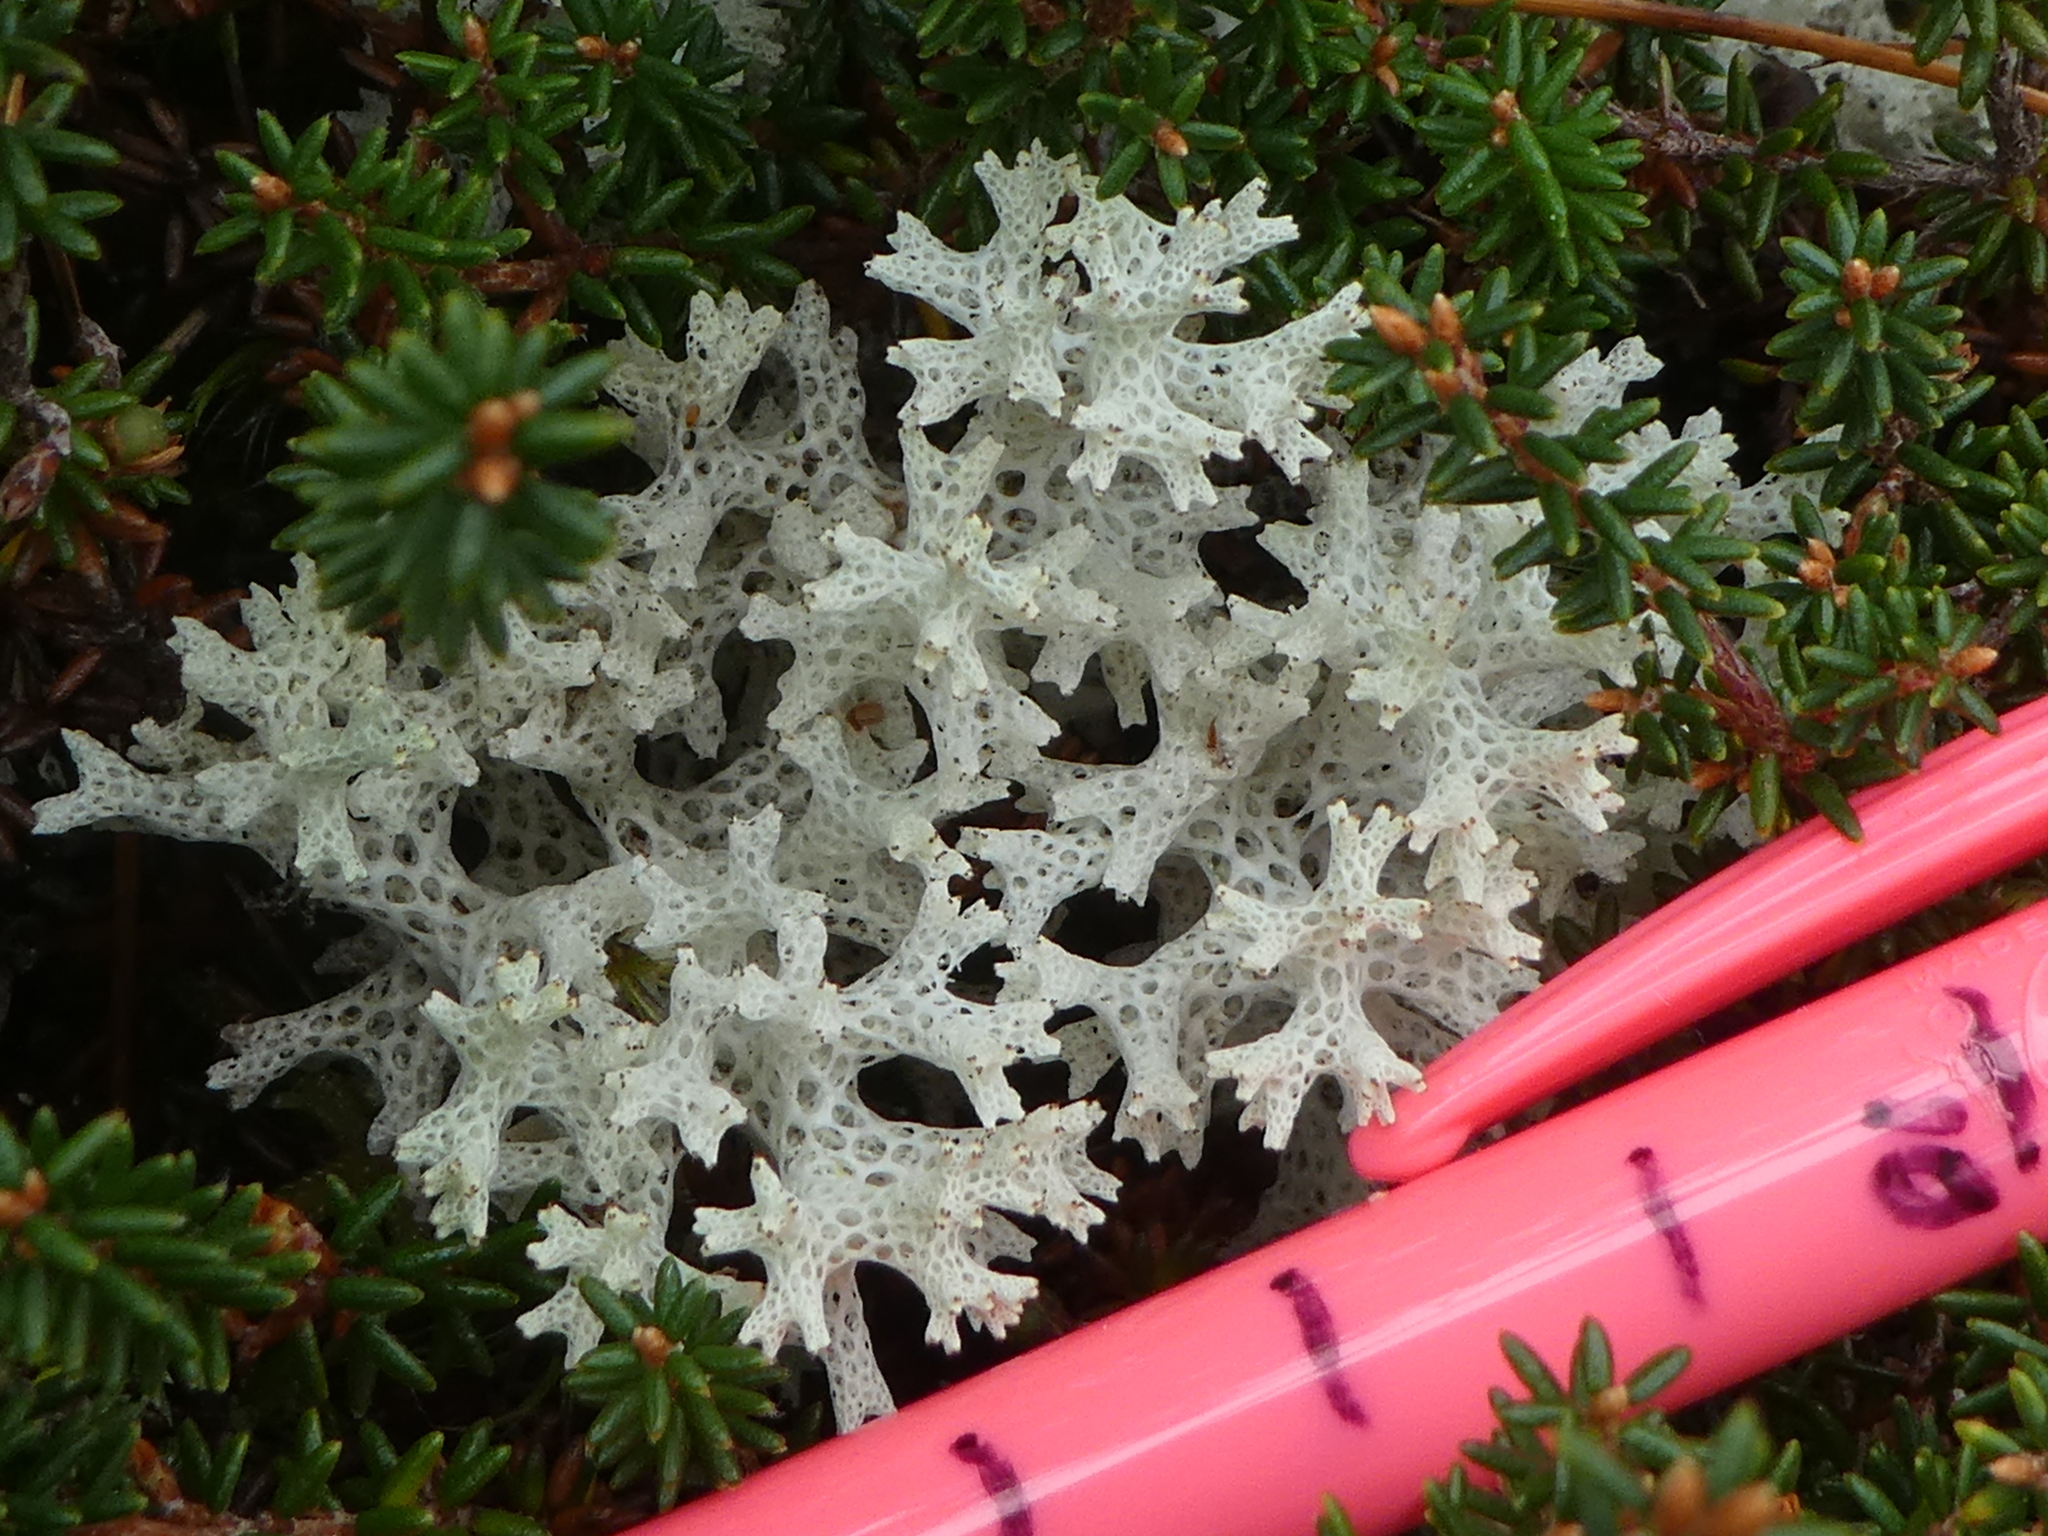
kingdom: Fungi
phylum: Ascomycota
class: Lecanoromycetes
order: Lecanorales
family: Cladoniaceae
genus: Pulchrocladia
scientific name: Pulchrocladia retipora
